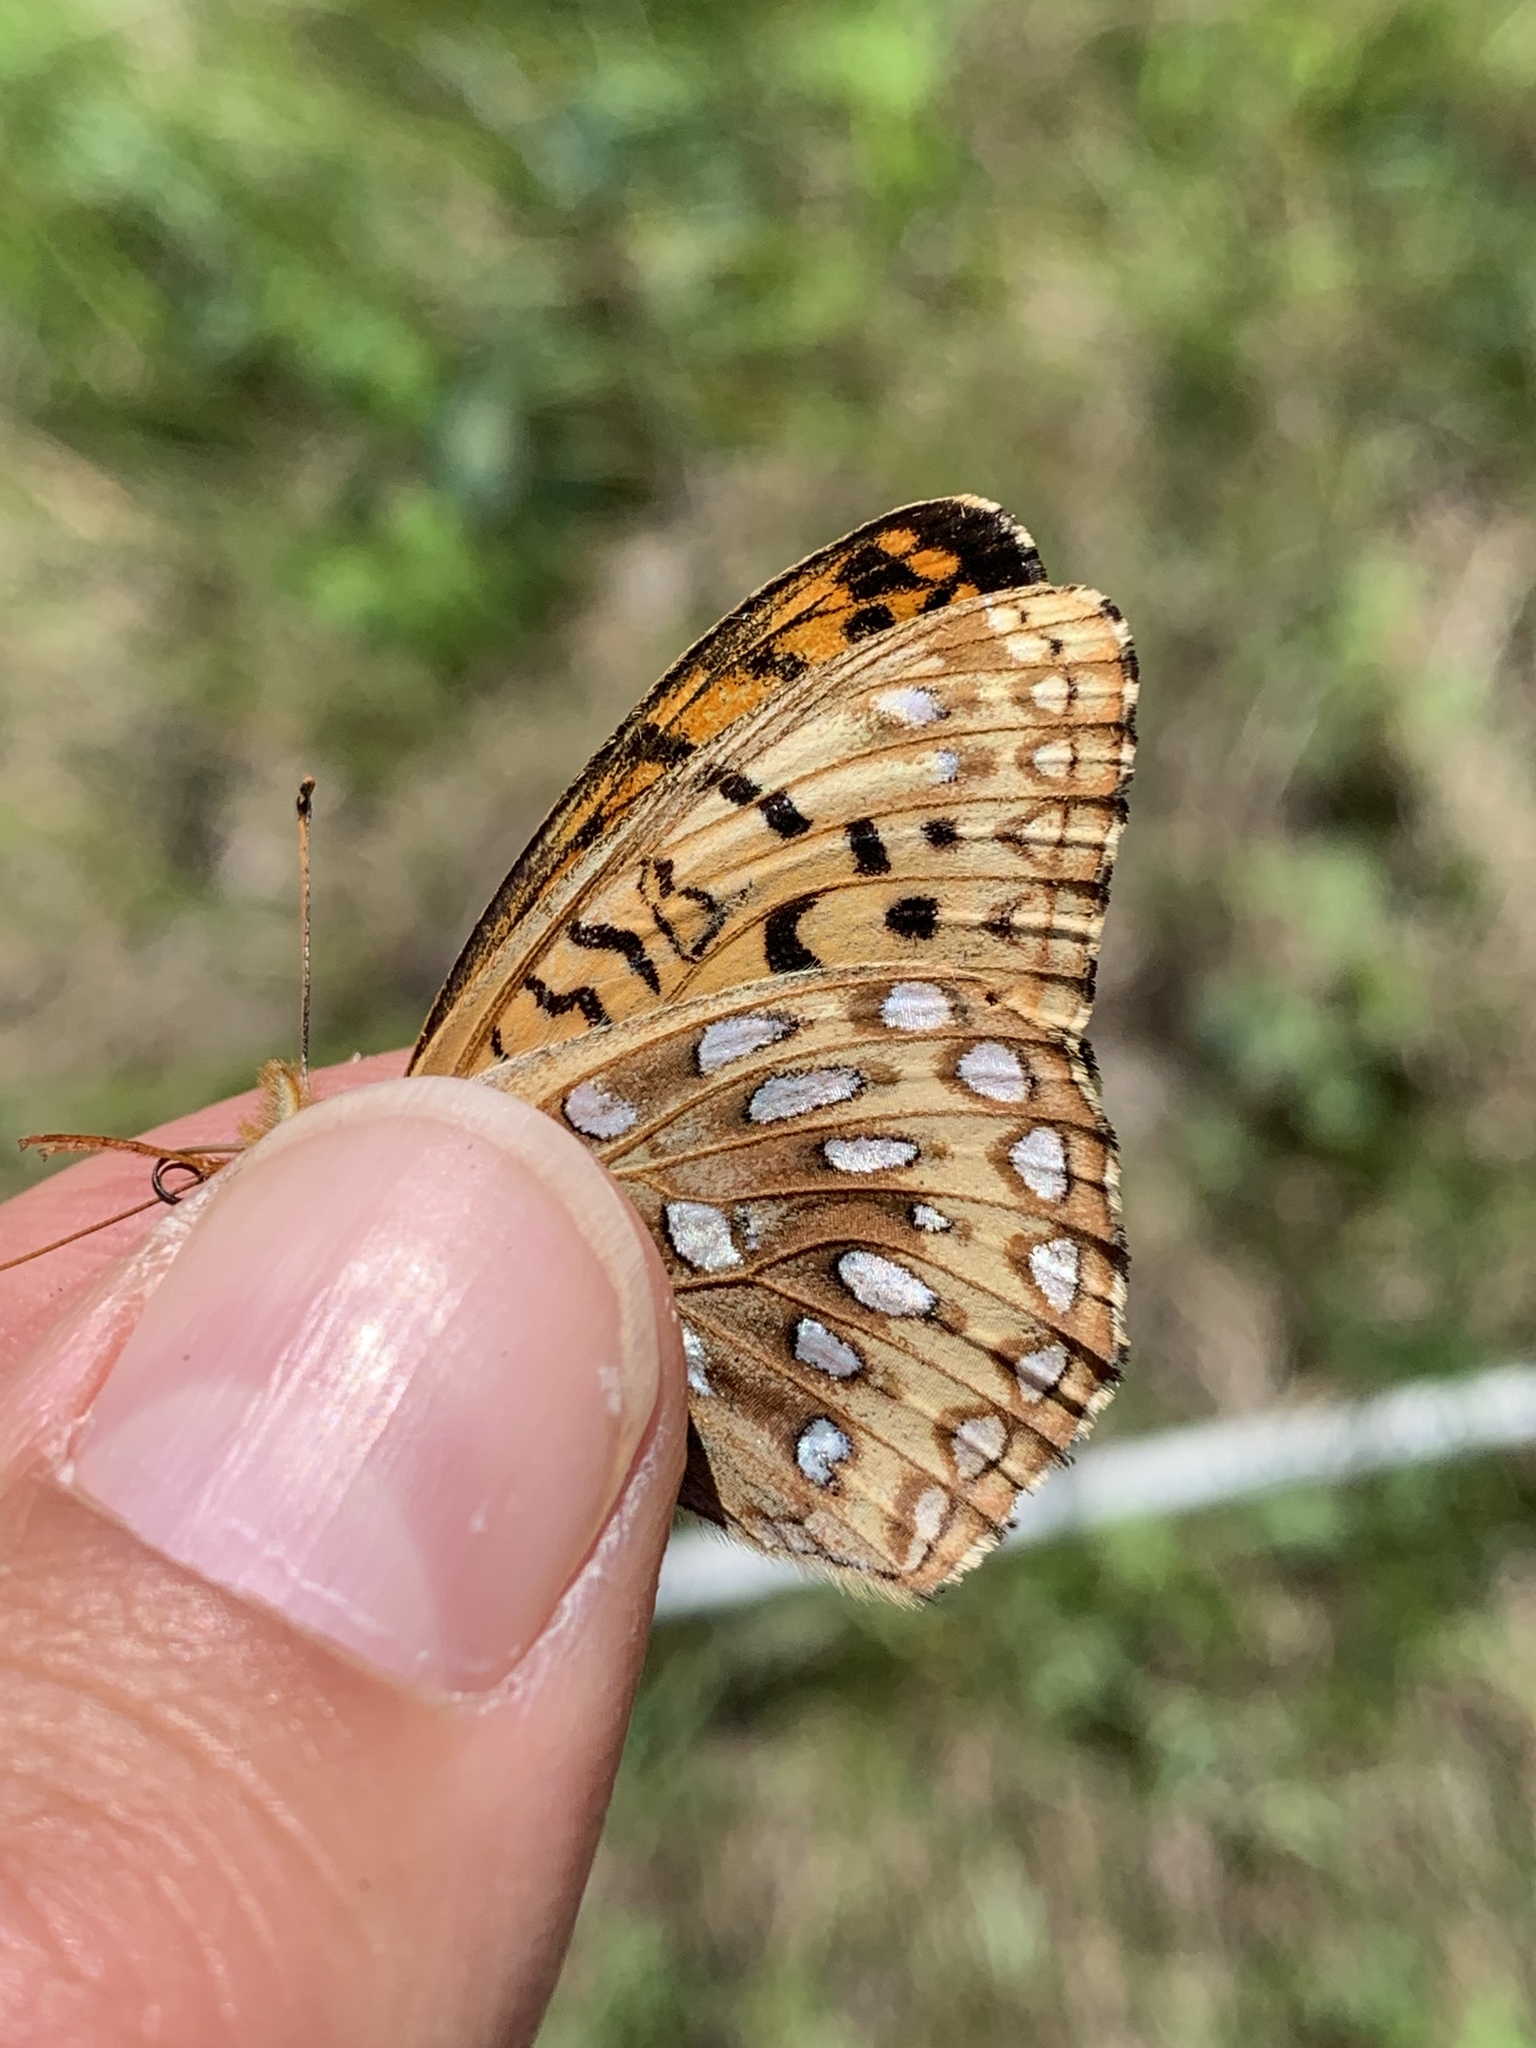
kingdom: Animalia
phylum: Arthropoda
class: Insecta
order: Lepidoptera
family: Nymphalidae
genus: Speyeria
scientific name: Speyeria atlantis
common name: Atlantis fritillary
